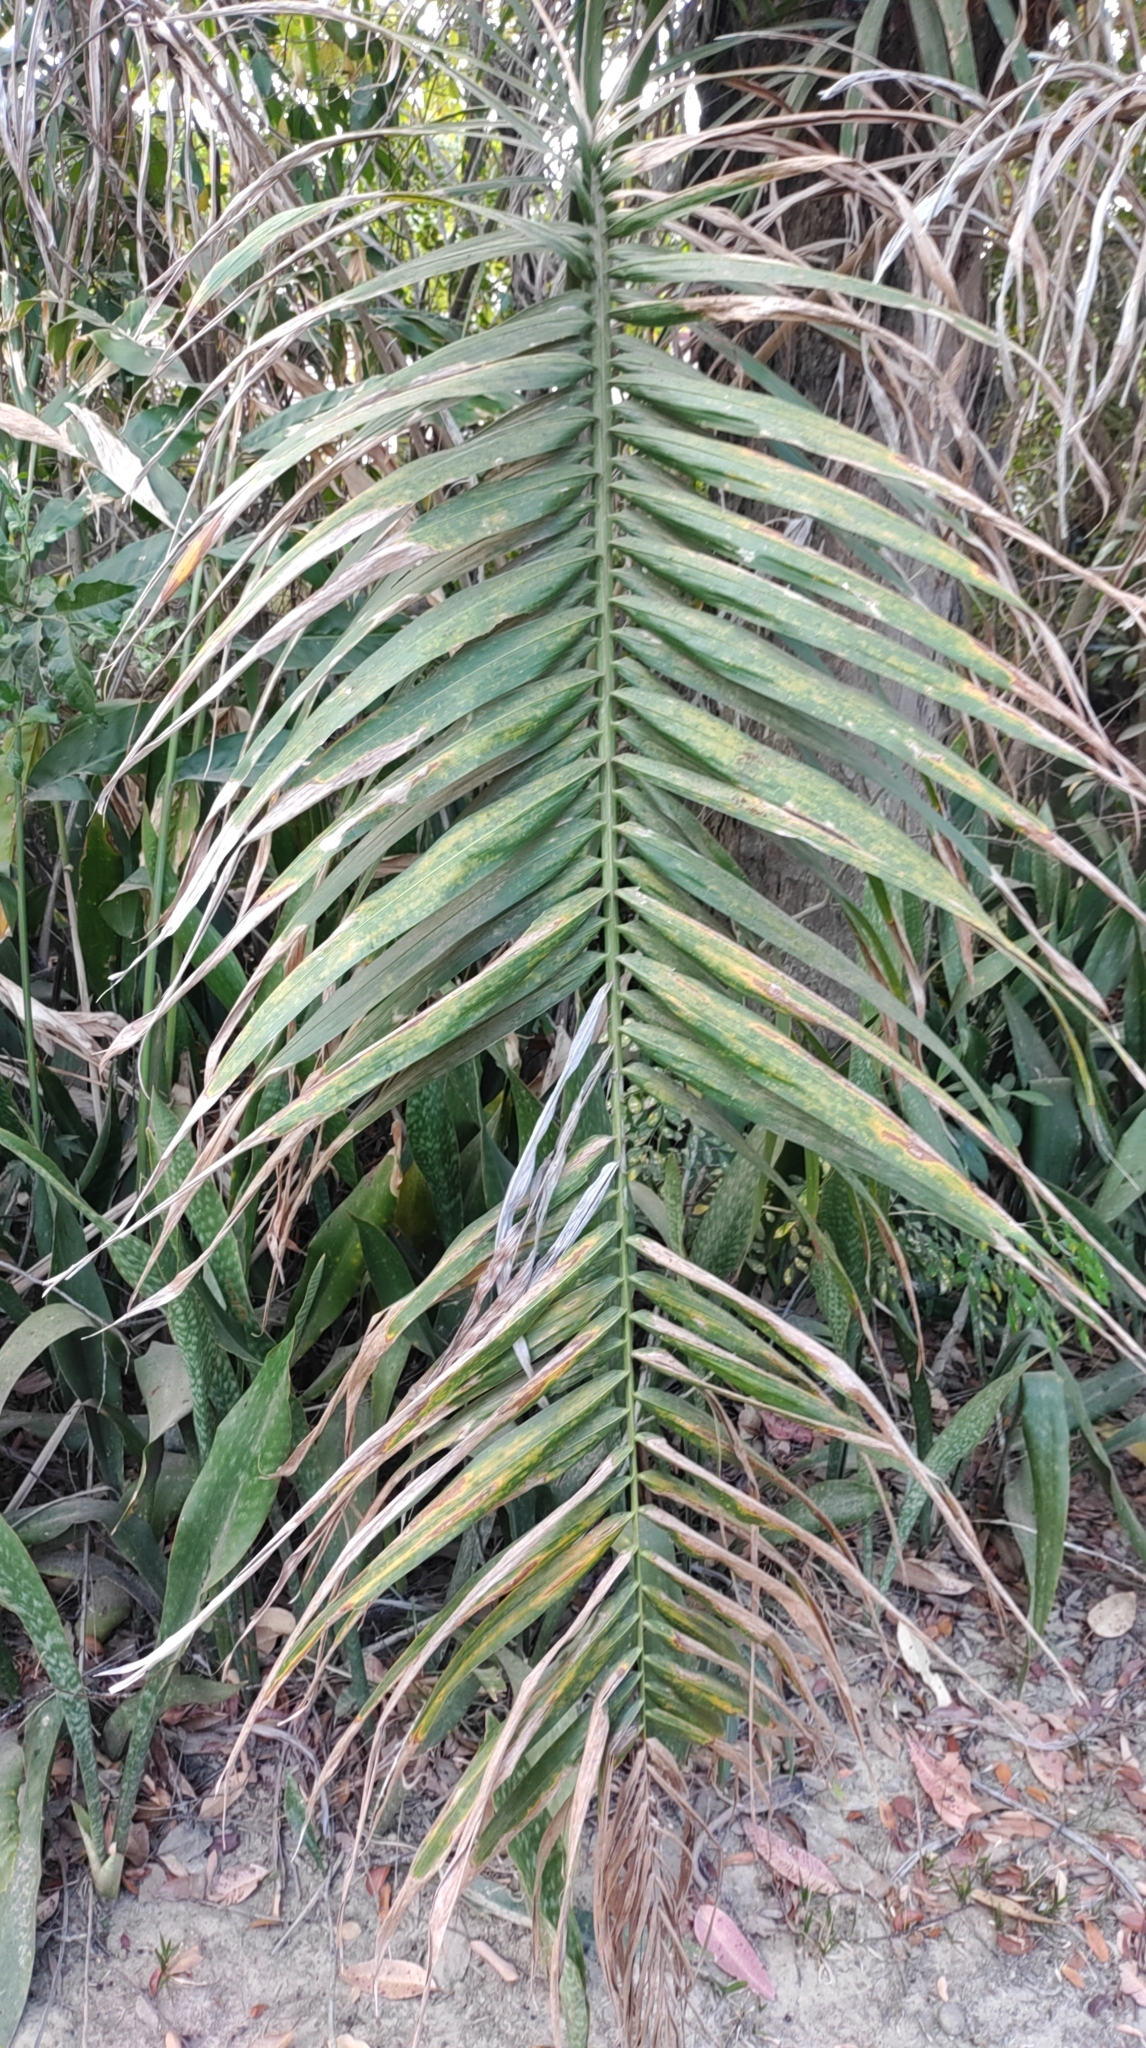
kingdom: Plantae
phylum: Tracheophyta
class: Liliopsida
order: Arecales
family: Arecaceae
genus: Phoenix
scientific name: Phoenix loureiroi
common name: Loureiro's palm
